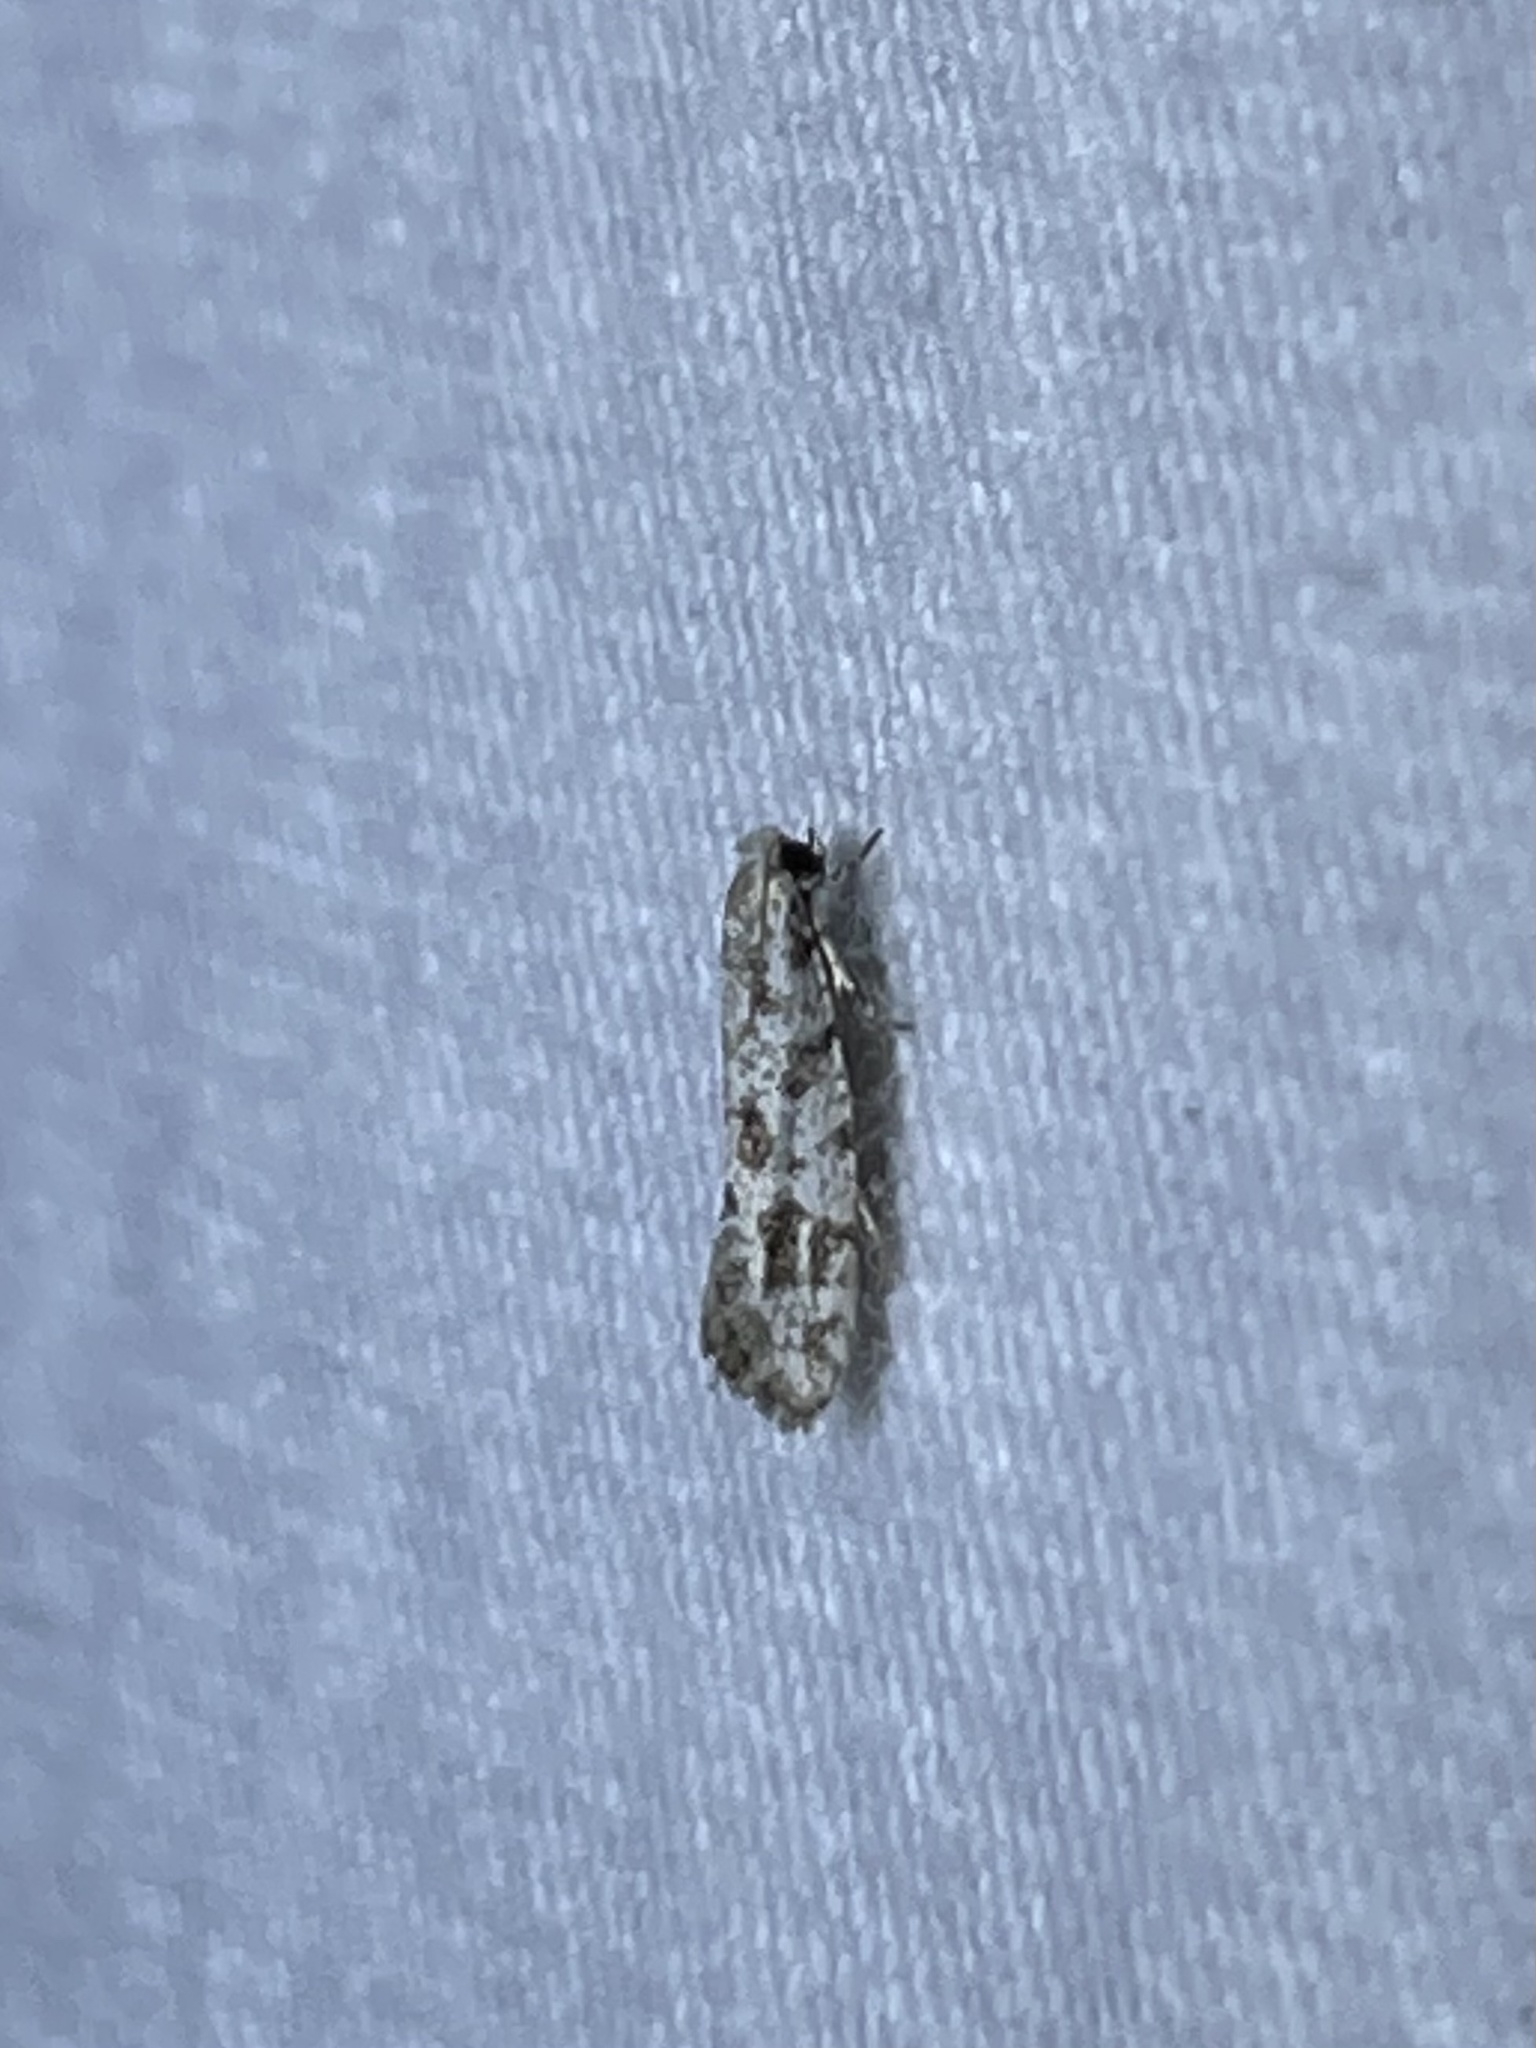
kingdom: Animalia
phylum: Arthropoda
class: Insecta
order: Lepidoptera
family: Meessiidae
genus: Diachorisia
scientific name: Diachorisia velatella
